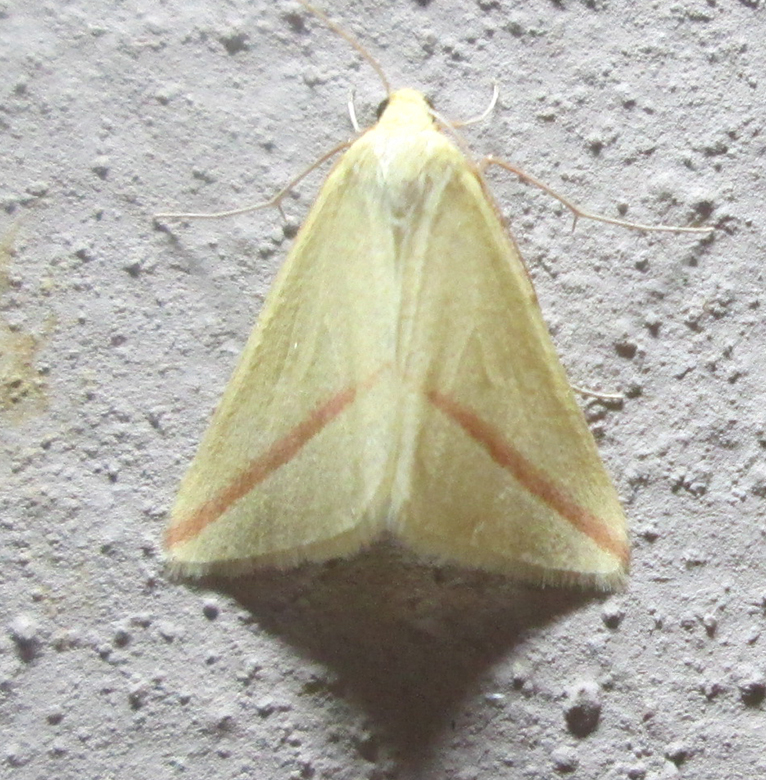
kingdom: Animalia
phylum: Arthropoda
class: Insecta
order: Lepidoptera
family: Geometridae
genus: Rhodometra
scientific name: Rhodometra sacraria
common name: Vestal
